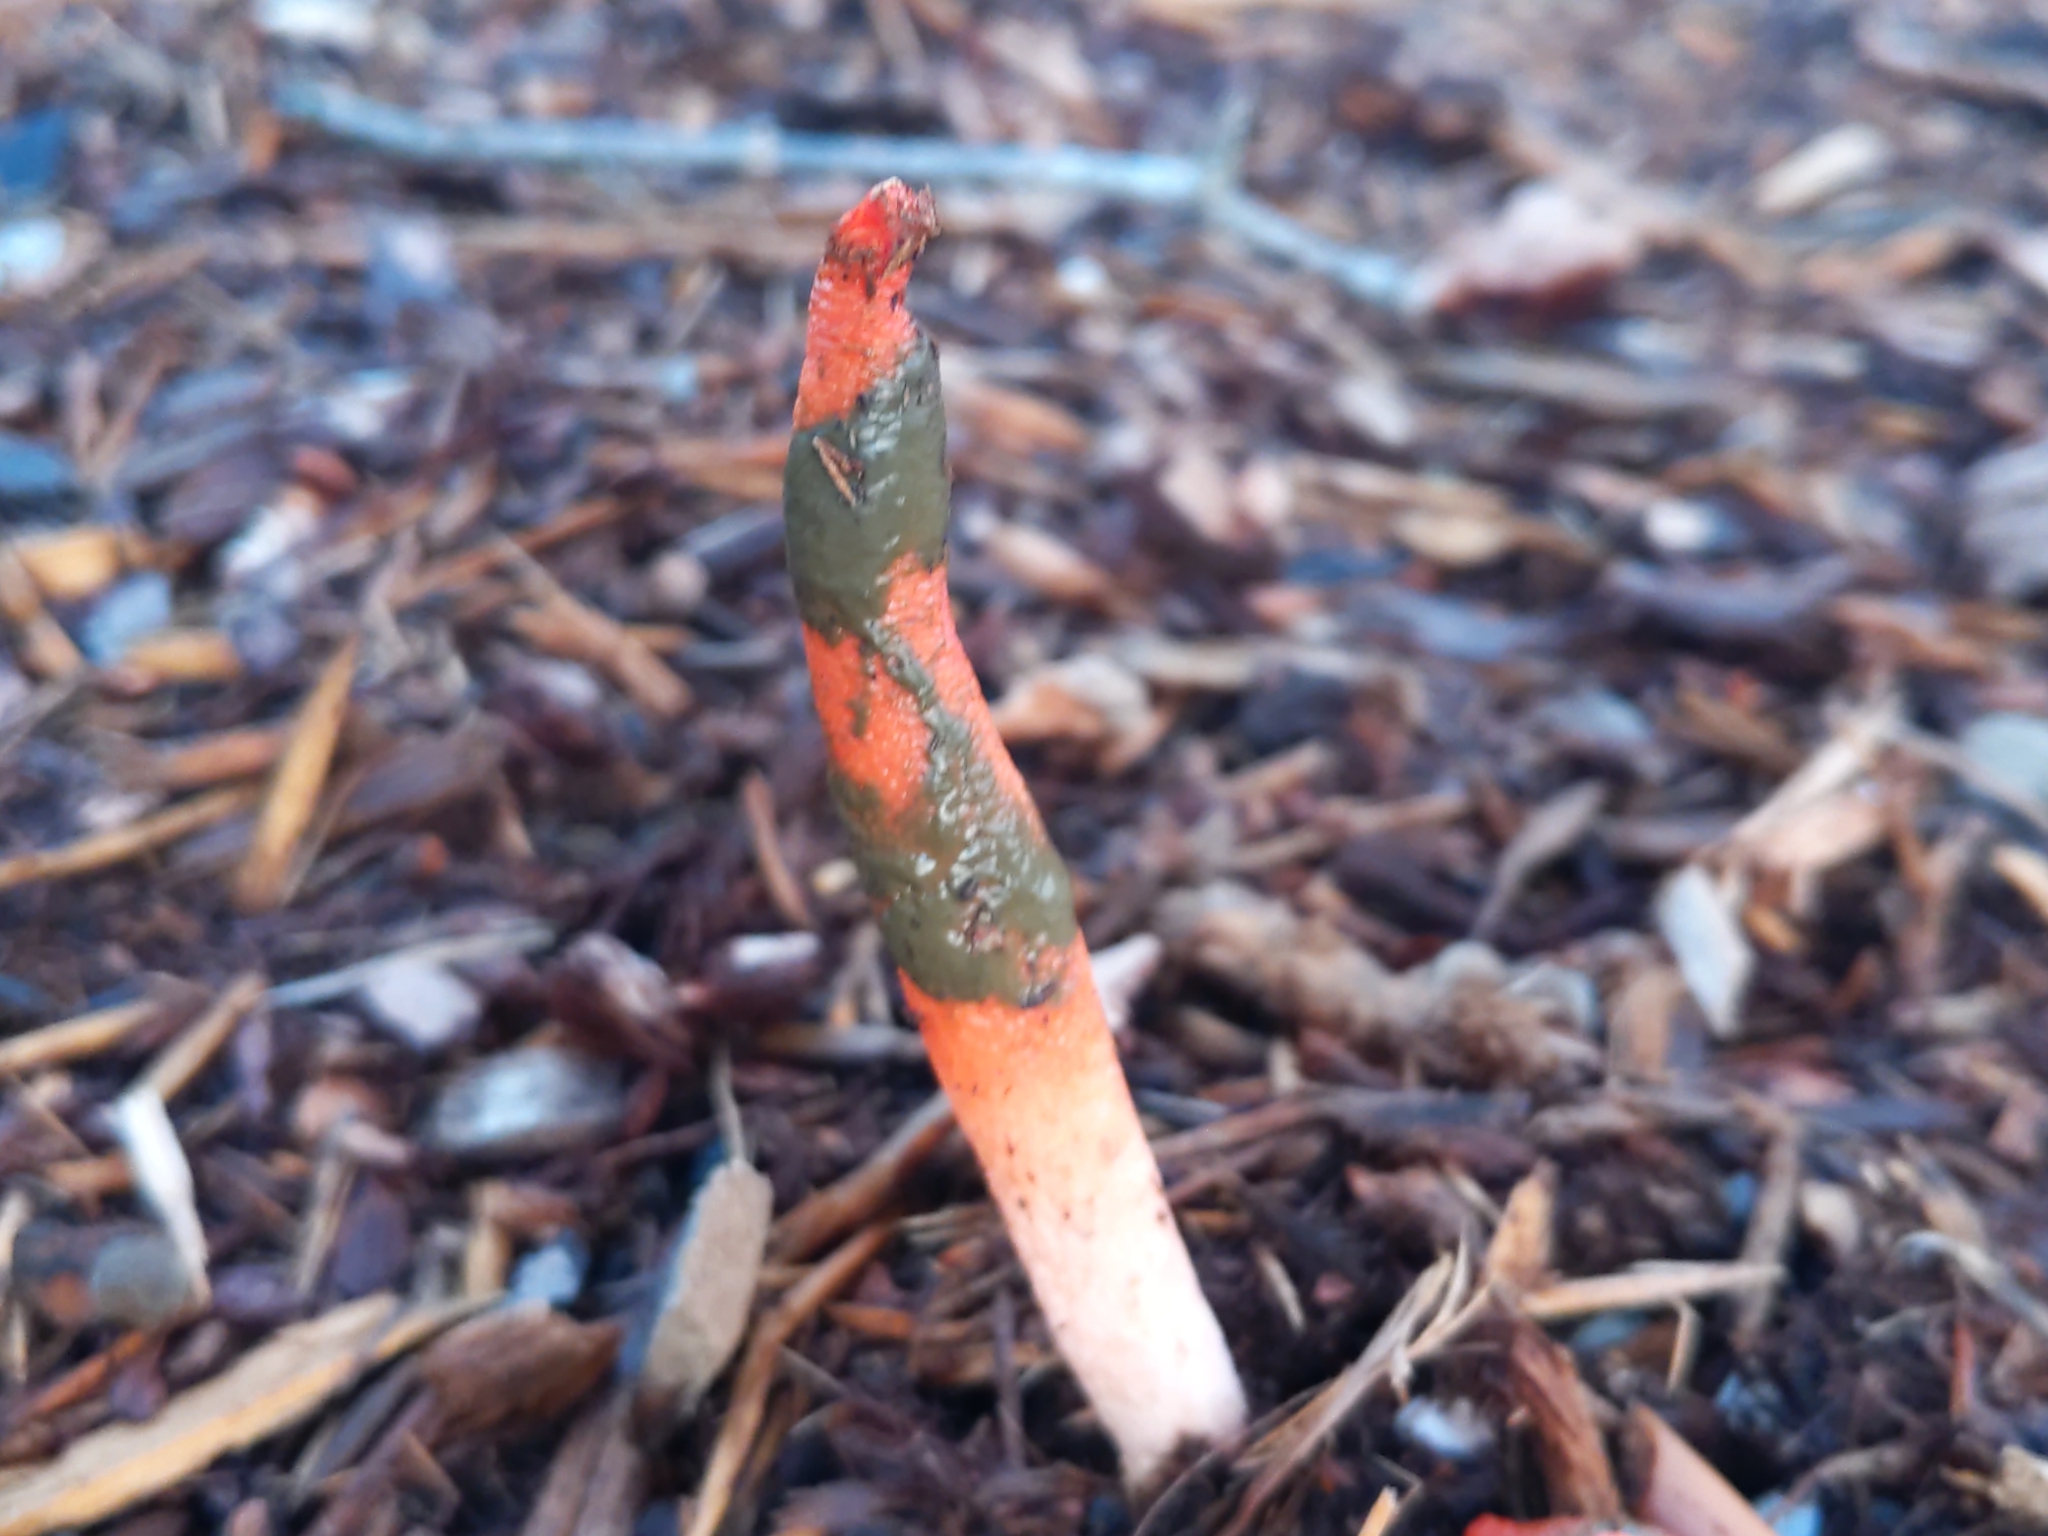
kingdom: Fungi
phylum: Basidiomycota
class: Agaricomycetes
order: Phallales
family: Phallaceae
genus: Mutinus
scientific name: Mutinus elegans
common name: Devil's dipstick
